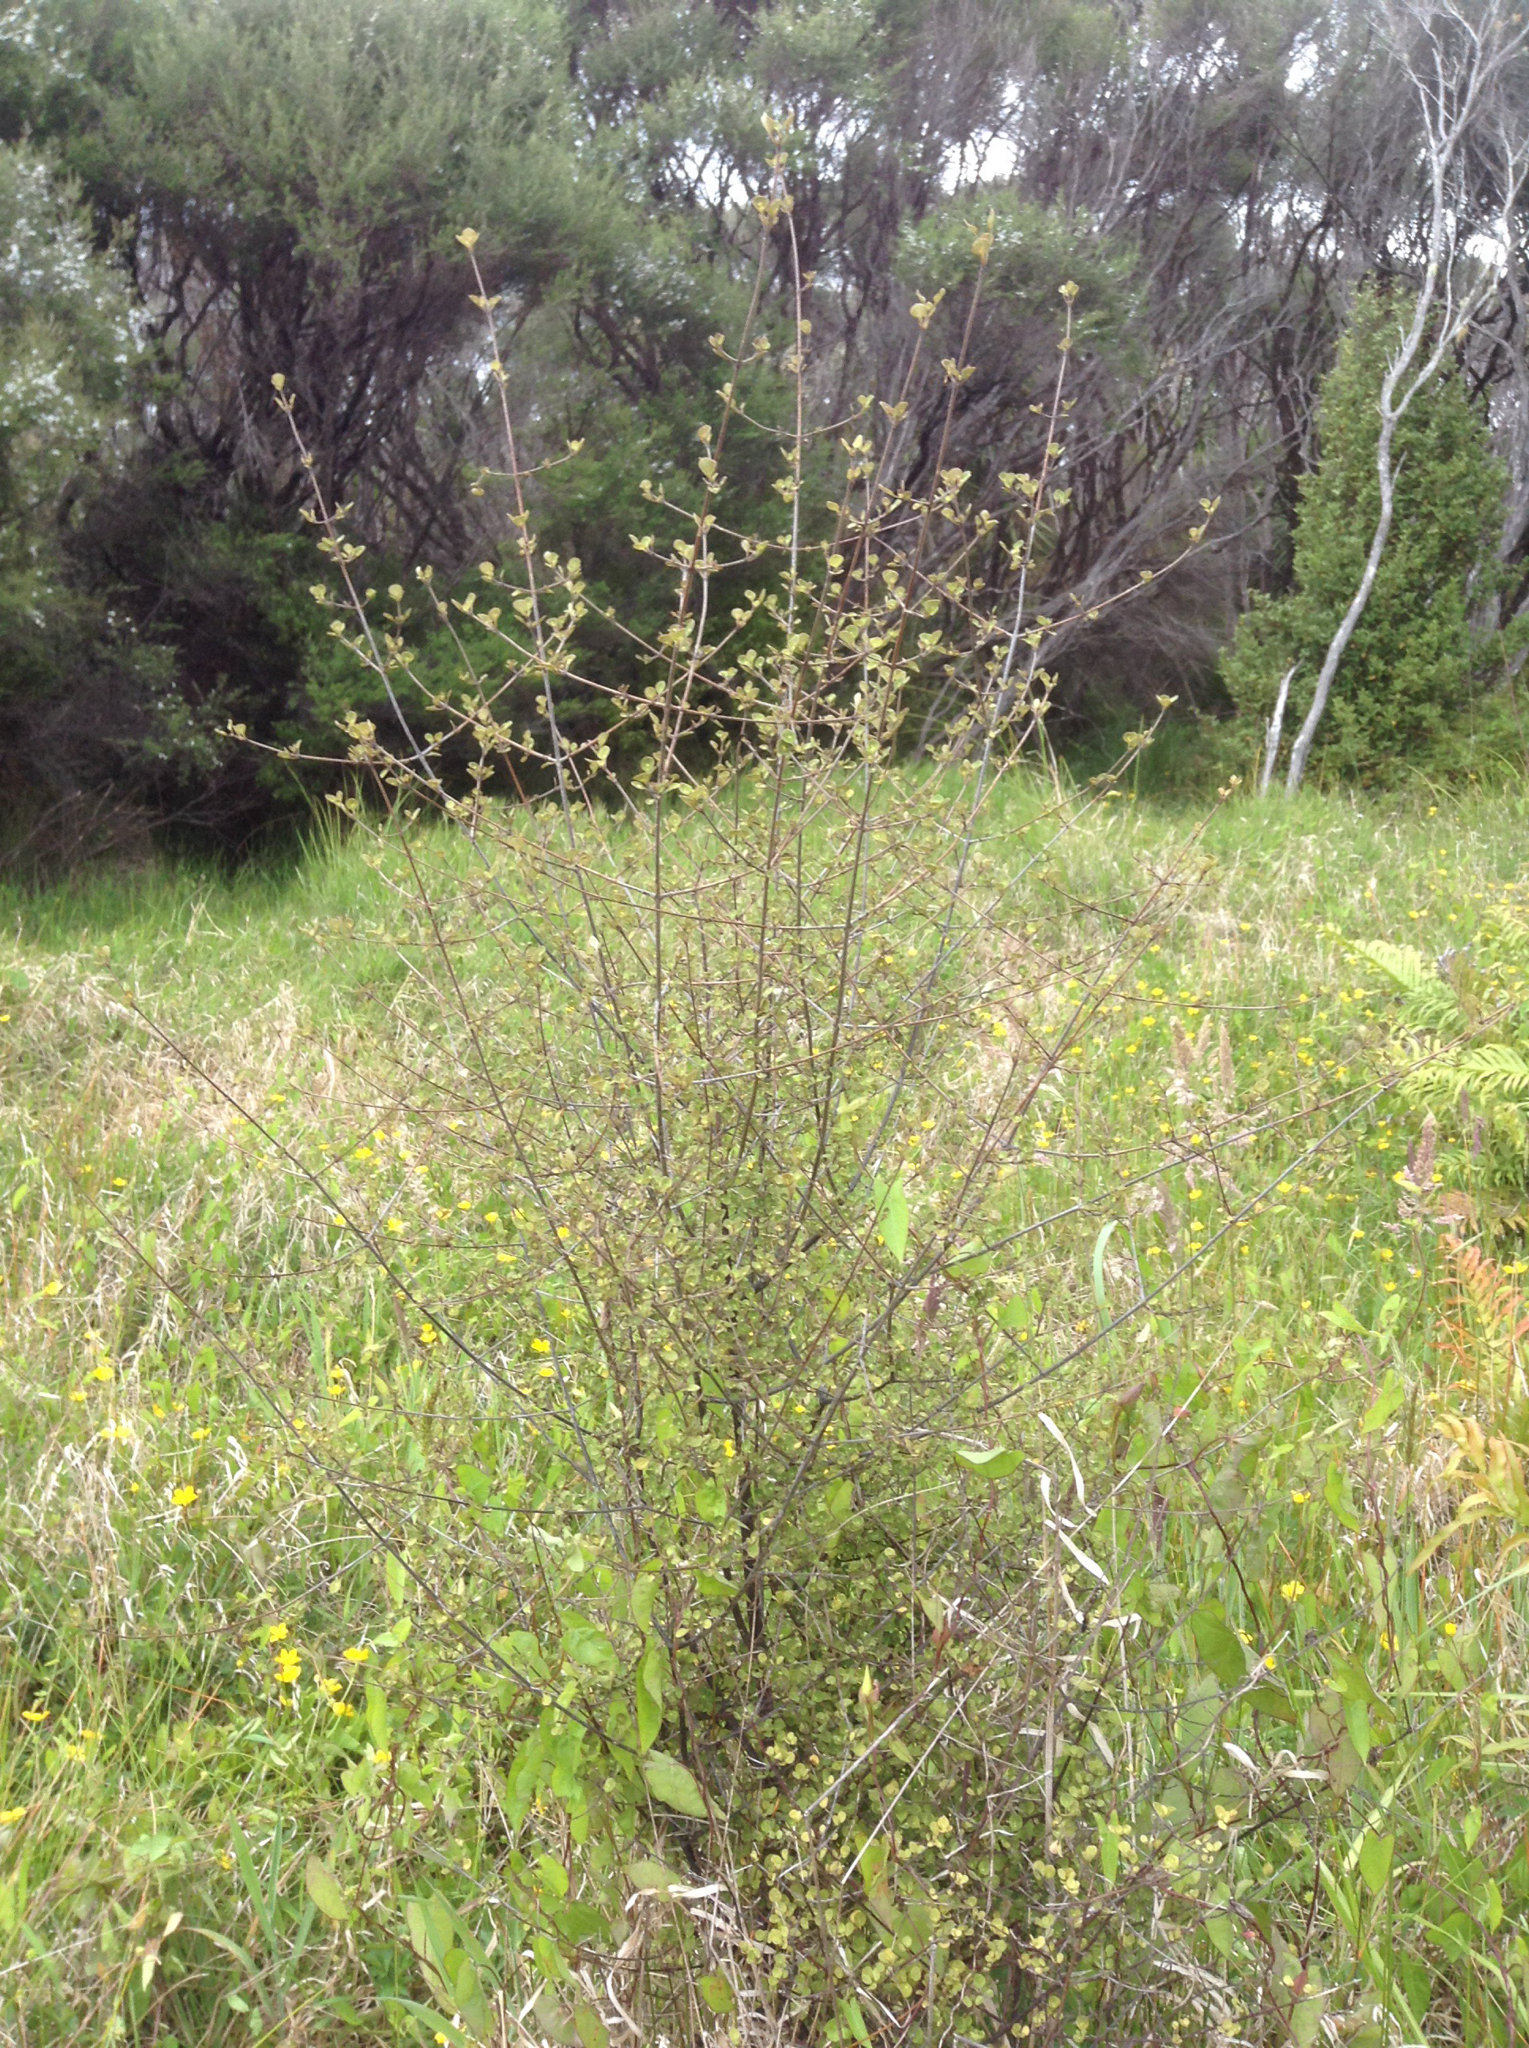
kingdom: Plantae
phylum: Tracheophyta
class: Magnoliopsida
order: Gentianales
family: Rubiaceae
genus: Coprosma
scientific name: Coprosma tenuicaulis
